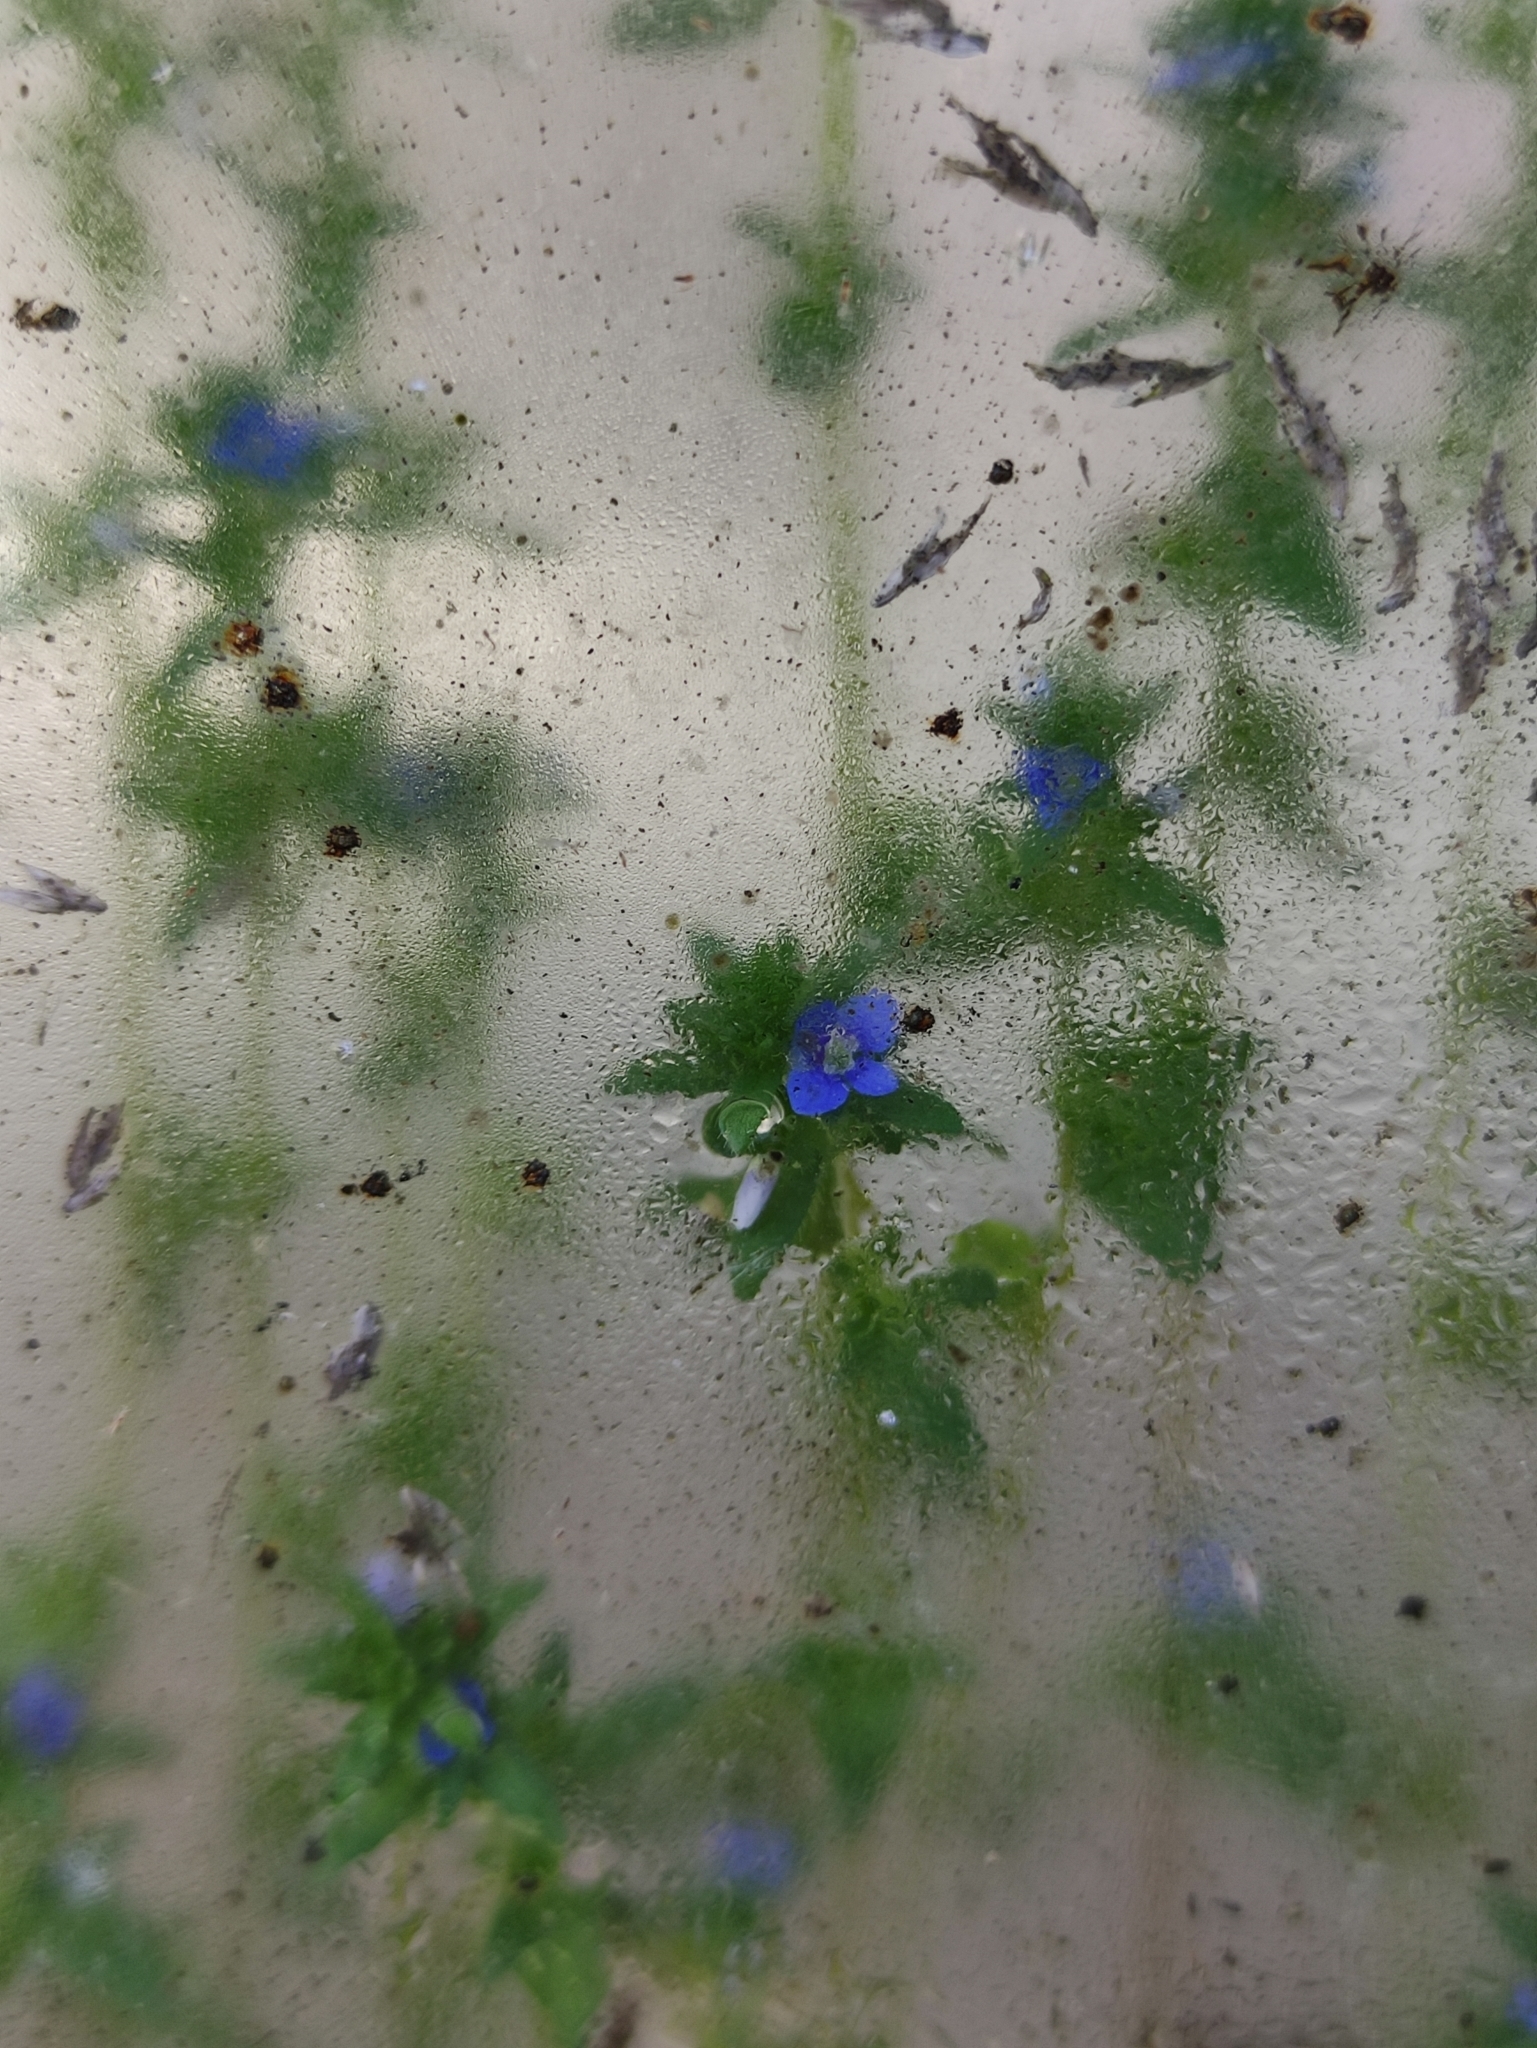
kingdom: Plantae
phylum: Tracheophyta
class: Magnoliopsida
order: Lamiales
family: Plantaginaceae
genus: Veronica
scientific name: Veronica arvensis
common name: Corn speedwell
